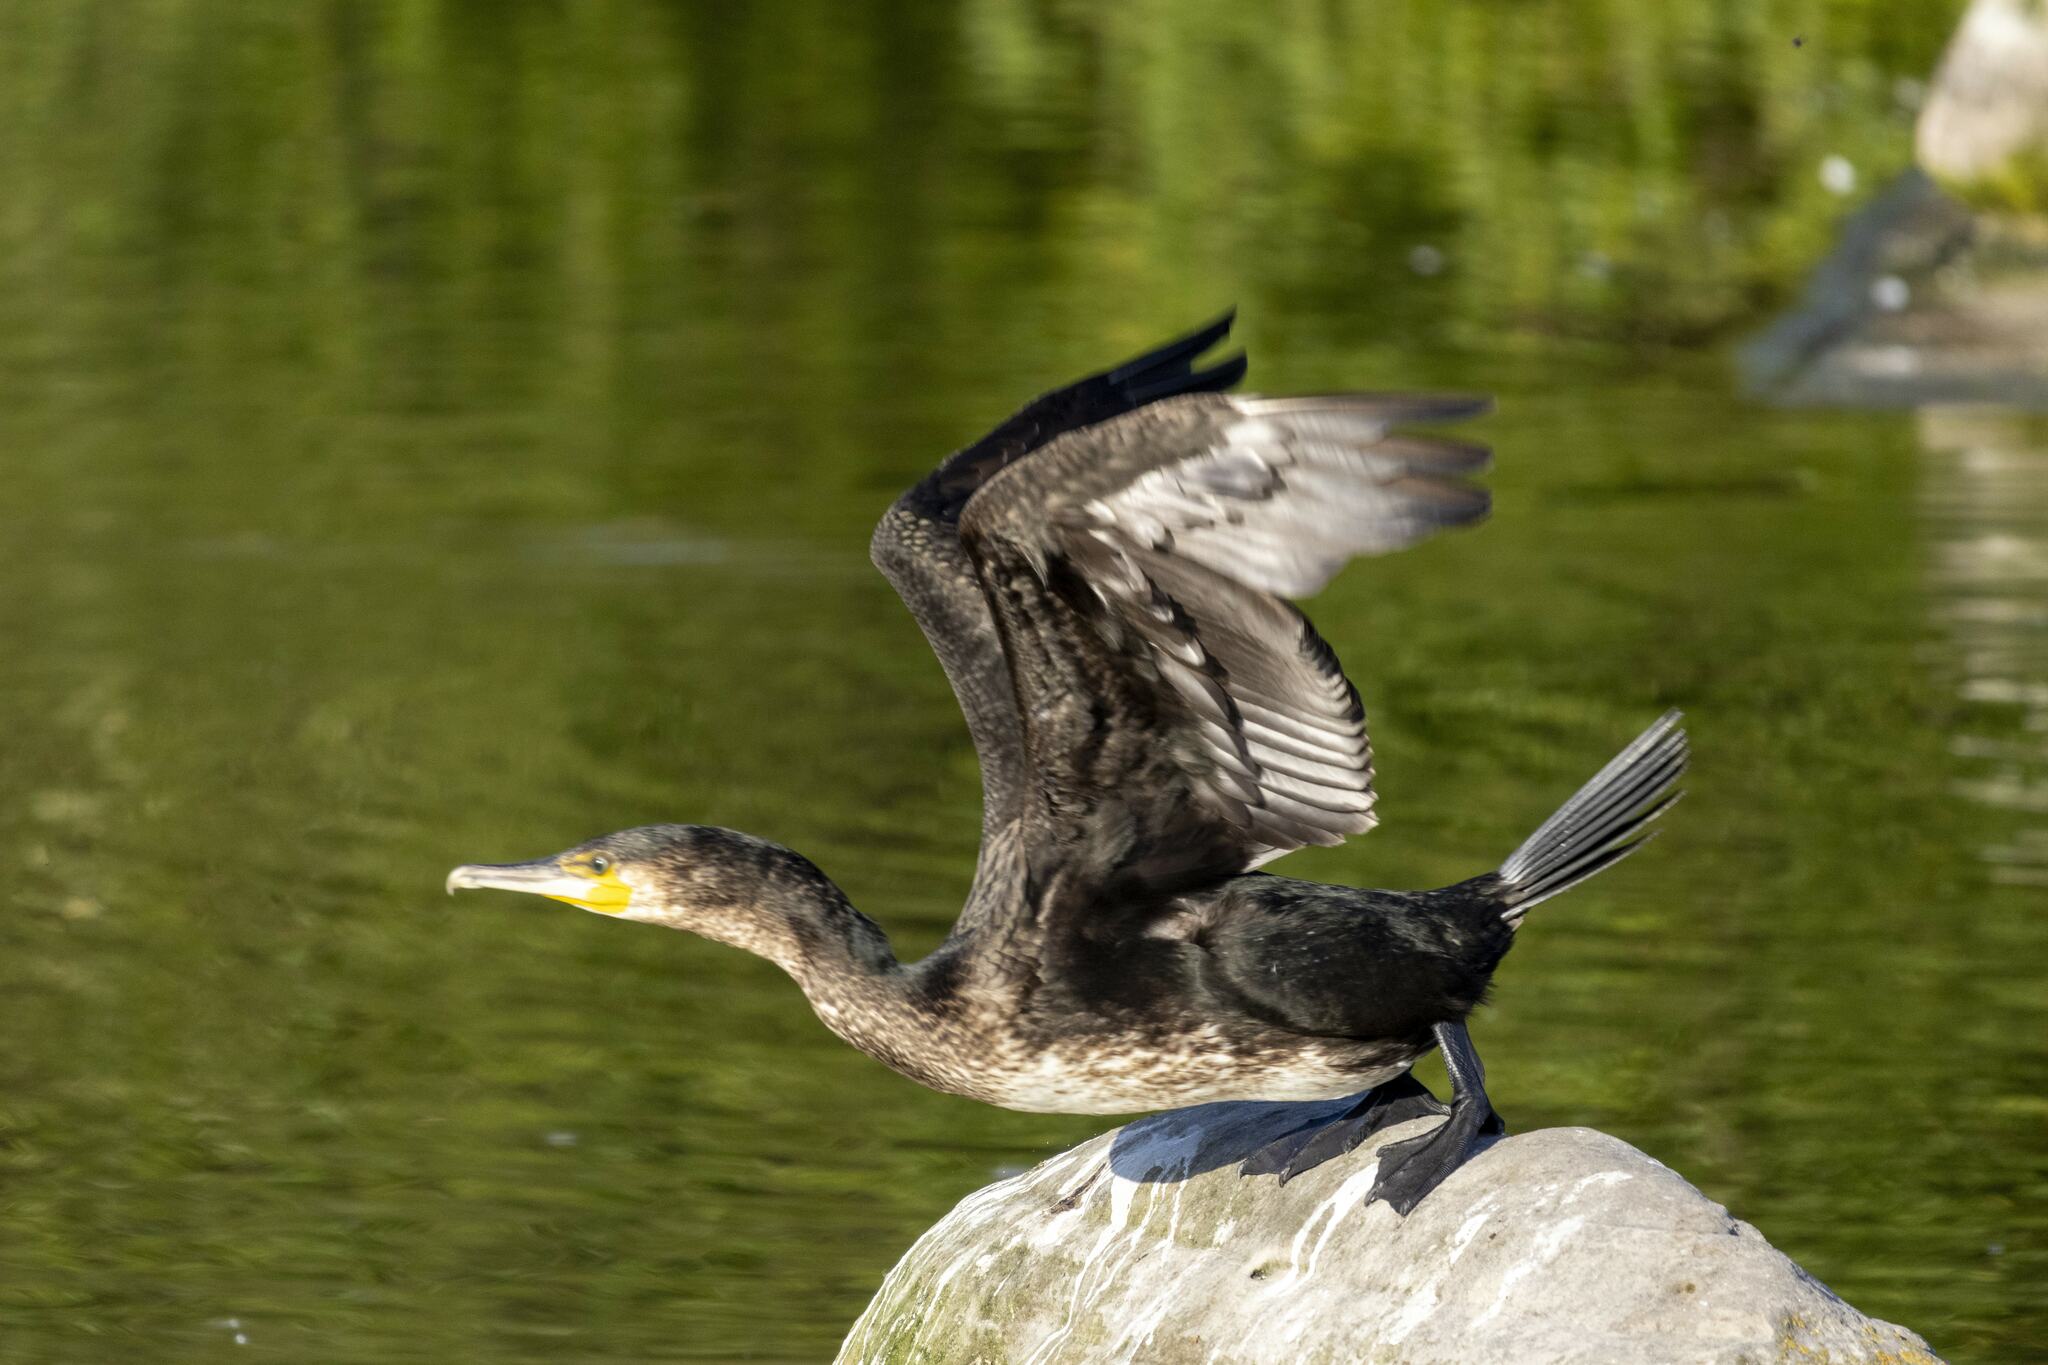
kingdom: Animalia
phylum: Chordata
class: Aves
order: Suliformes
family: Phalacrocoracidae
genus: Phalacrocorax
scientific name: Phalacrocorax carbo
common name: Great cormorant
